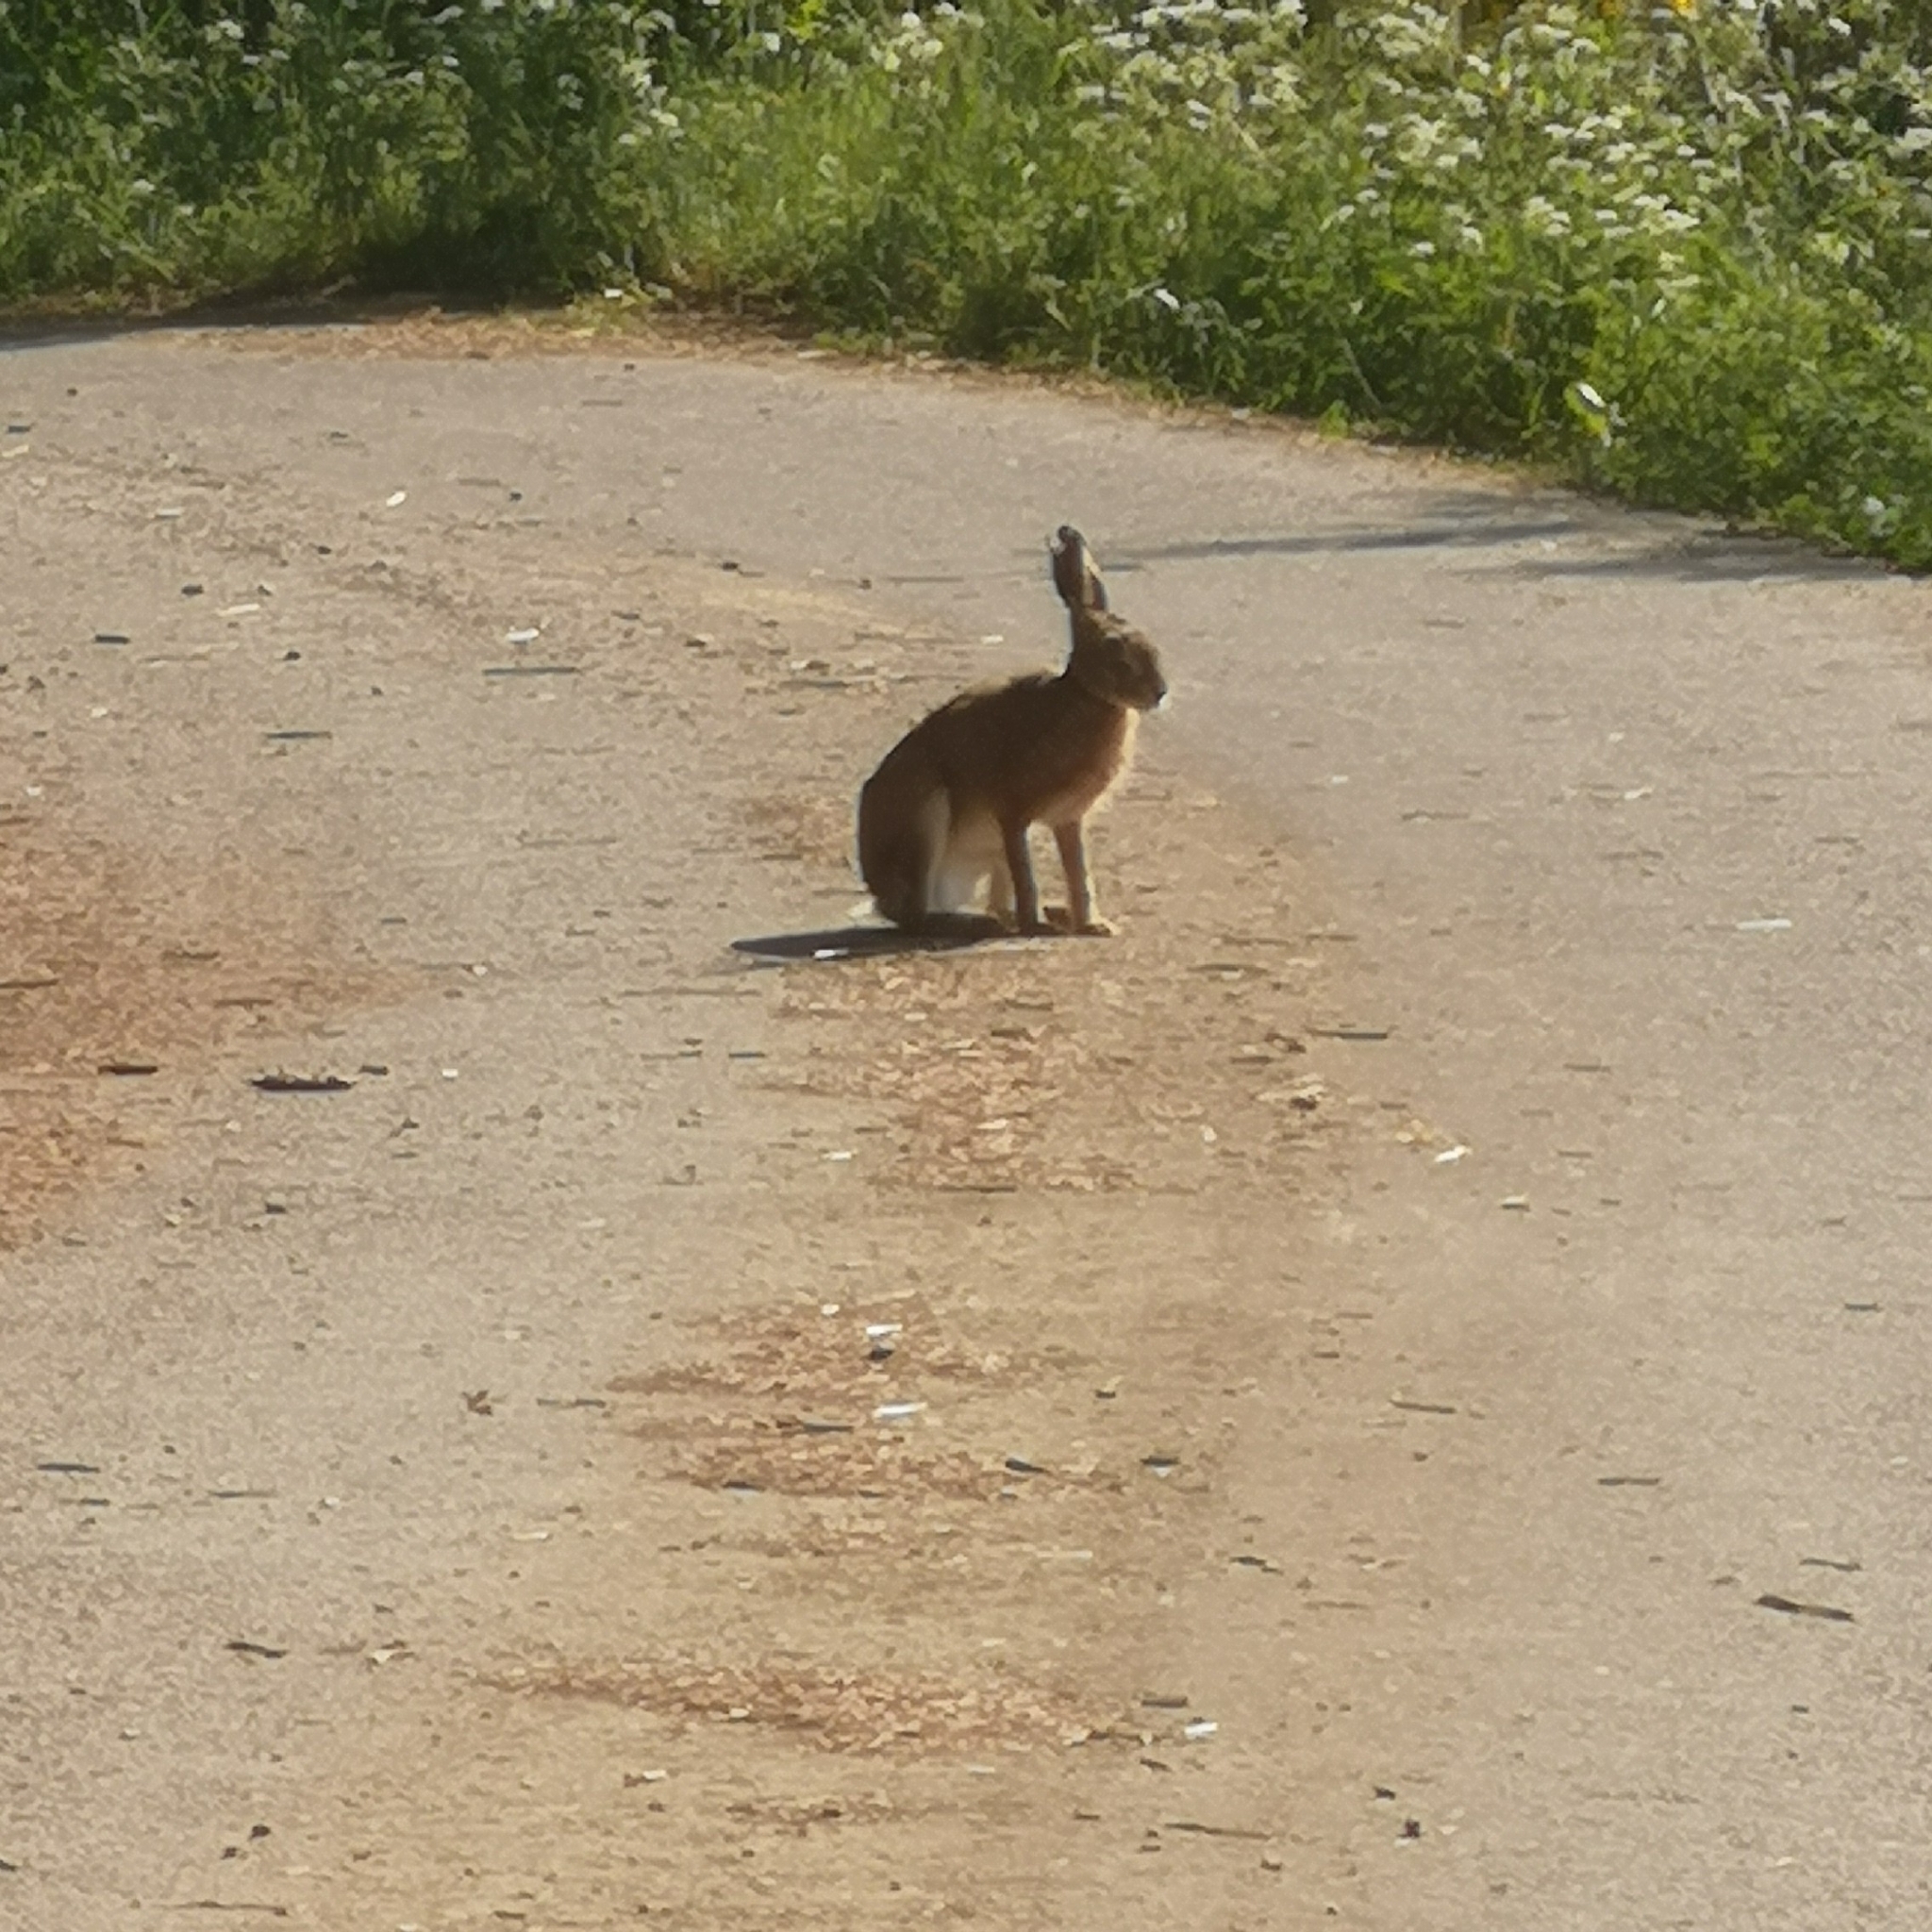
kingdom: Animalia
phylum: Chordata
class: Mammalia
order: Lagomorpha
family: Leporidae
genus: Lepus
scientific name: Lepus europaeus
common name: European hare
